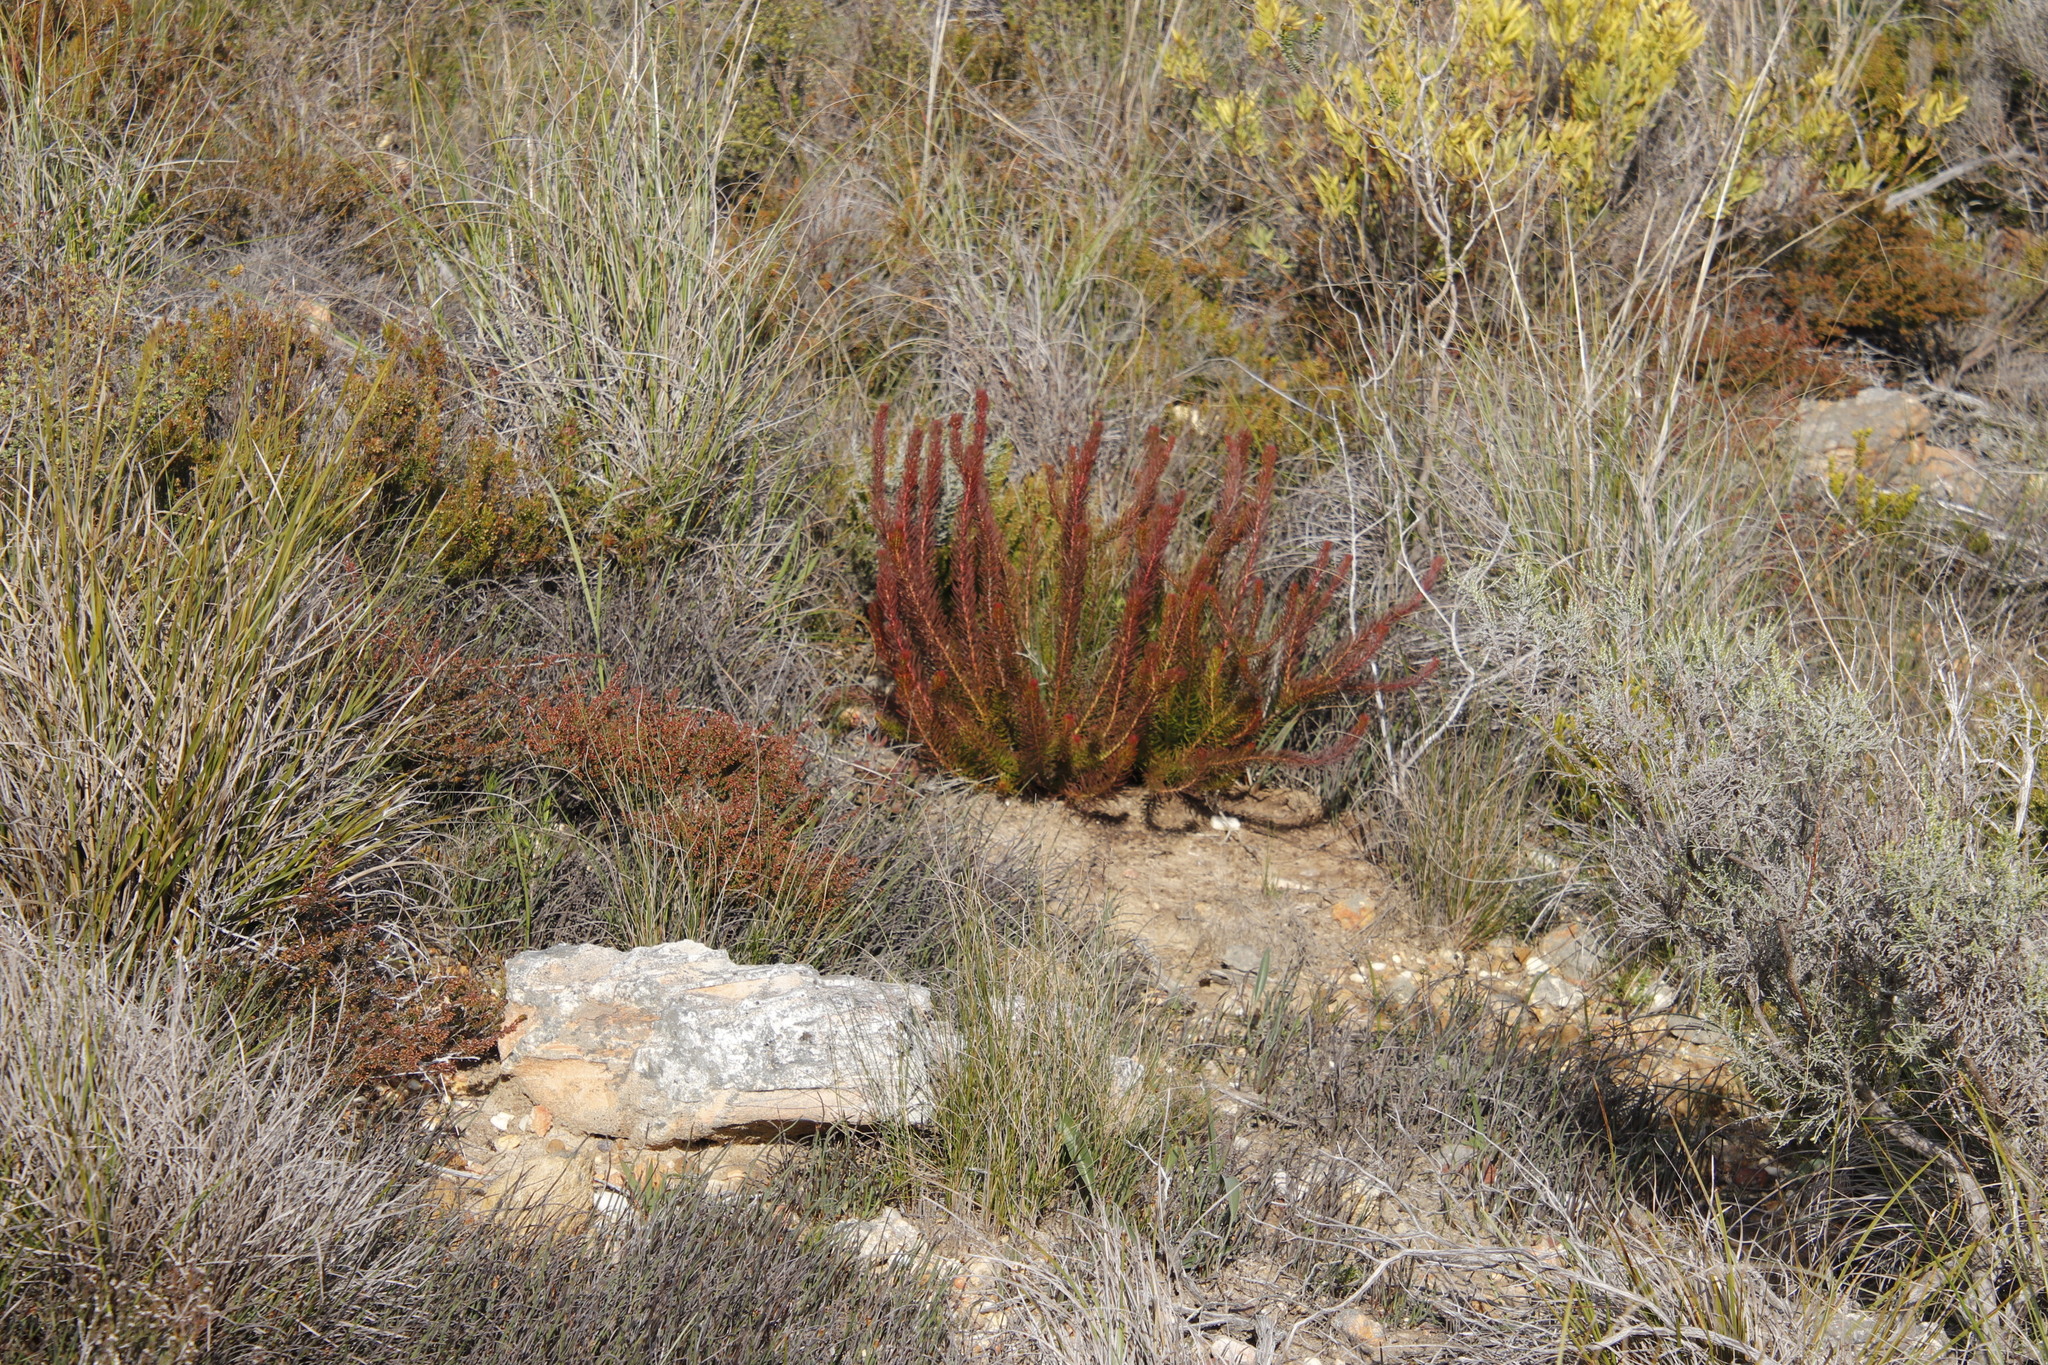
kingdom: Plantae
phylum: Tracheophyta
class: Magnoliopsida
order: Proteales
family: Proteaceae
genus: Protea
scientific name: Protea subulifolia
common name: Awl-leaf sugarbush
